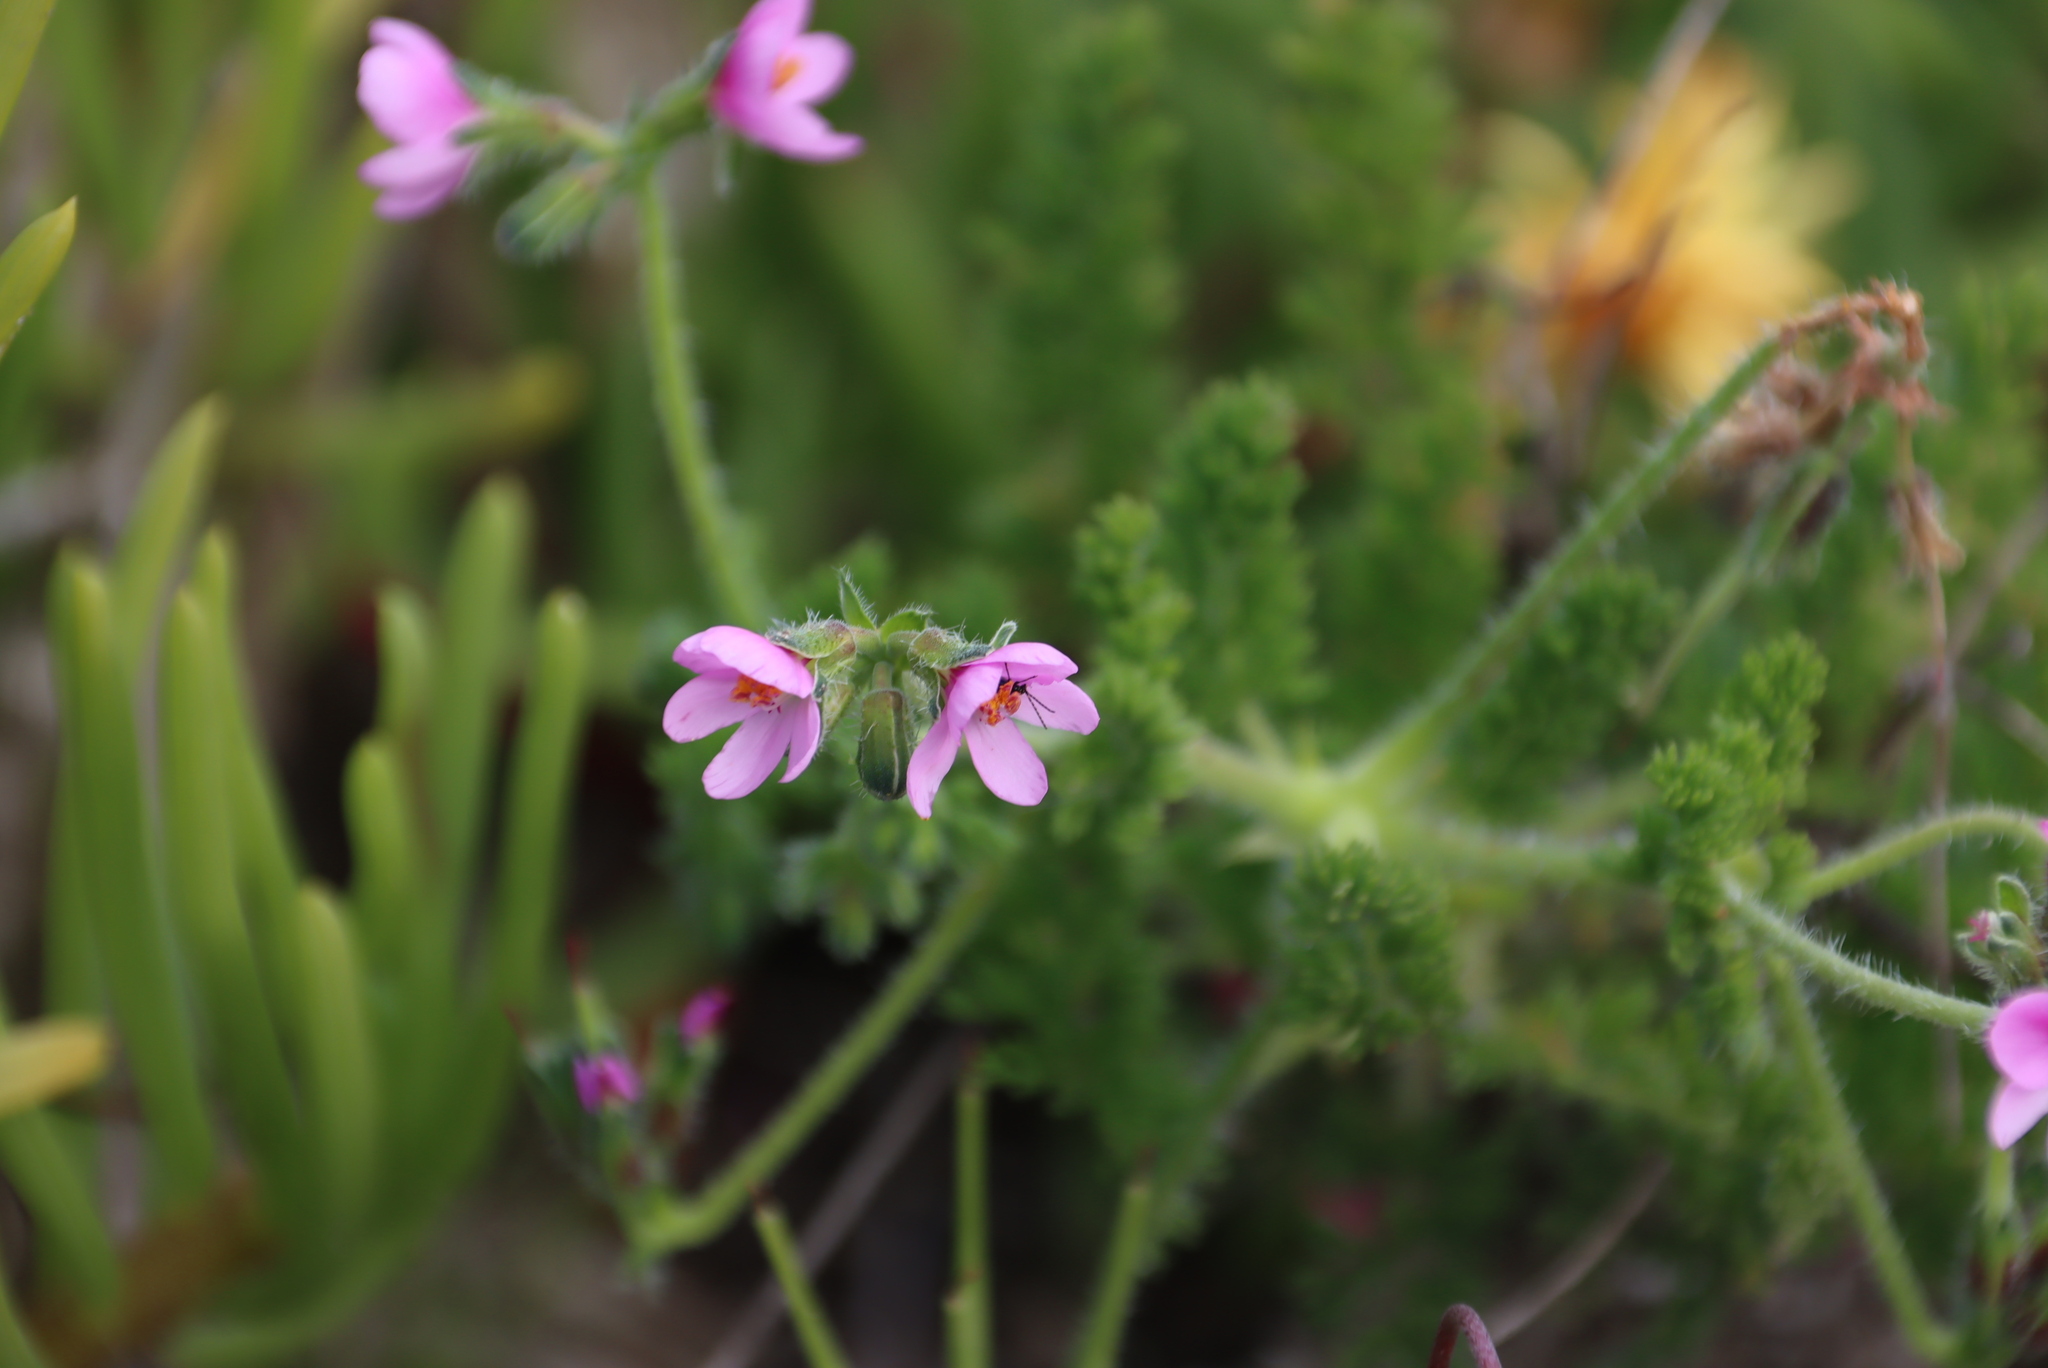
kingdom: Plantae
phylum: Tracheophyta
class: Magnoliopsida
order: Geraniales
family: Geraniaceae
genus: Pelargonium
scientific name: Pelargonium hirtum
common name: Fine-leaf pelargonium
